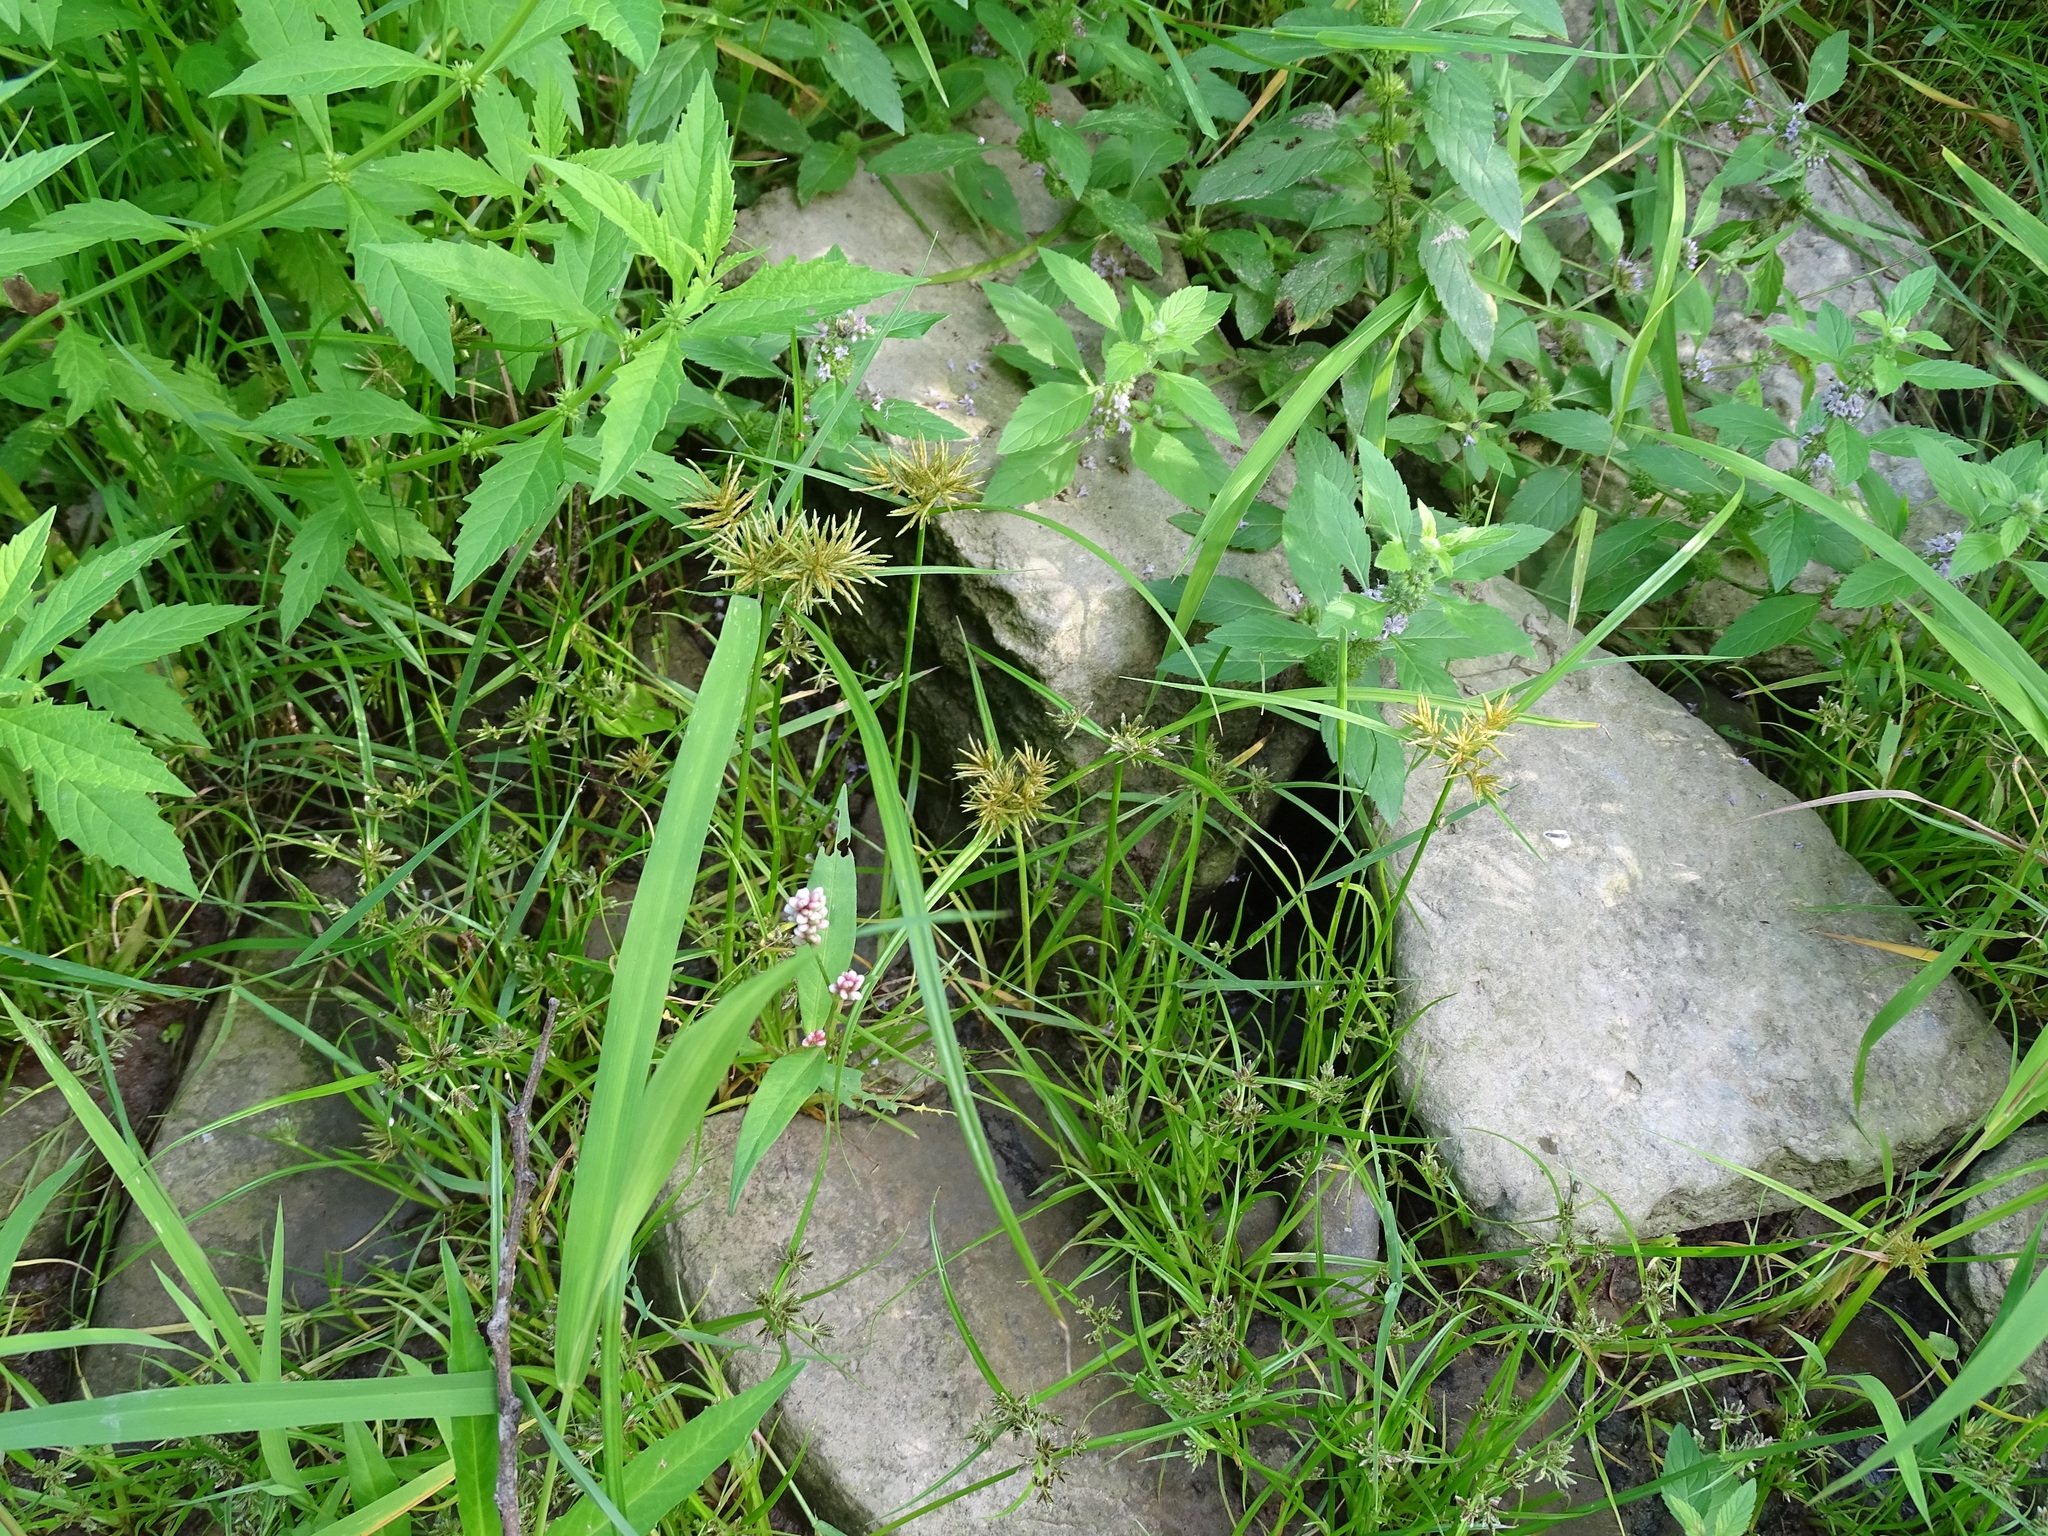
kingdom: Plantae
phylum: Tracheophyta
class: Liliopsida
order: Poales
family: Cyperaceae
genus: Cyperus
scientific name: Cyperus odoratus
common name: Fragrant flatsedge
